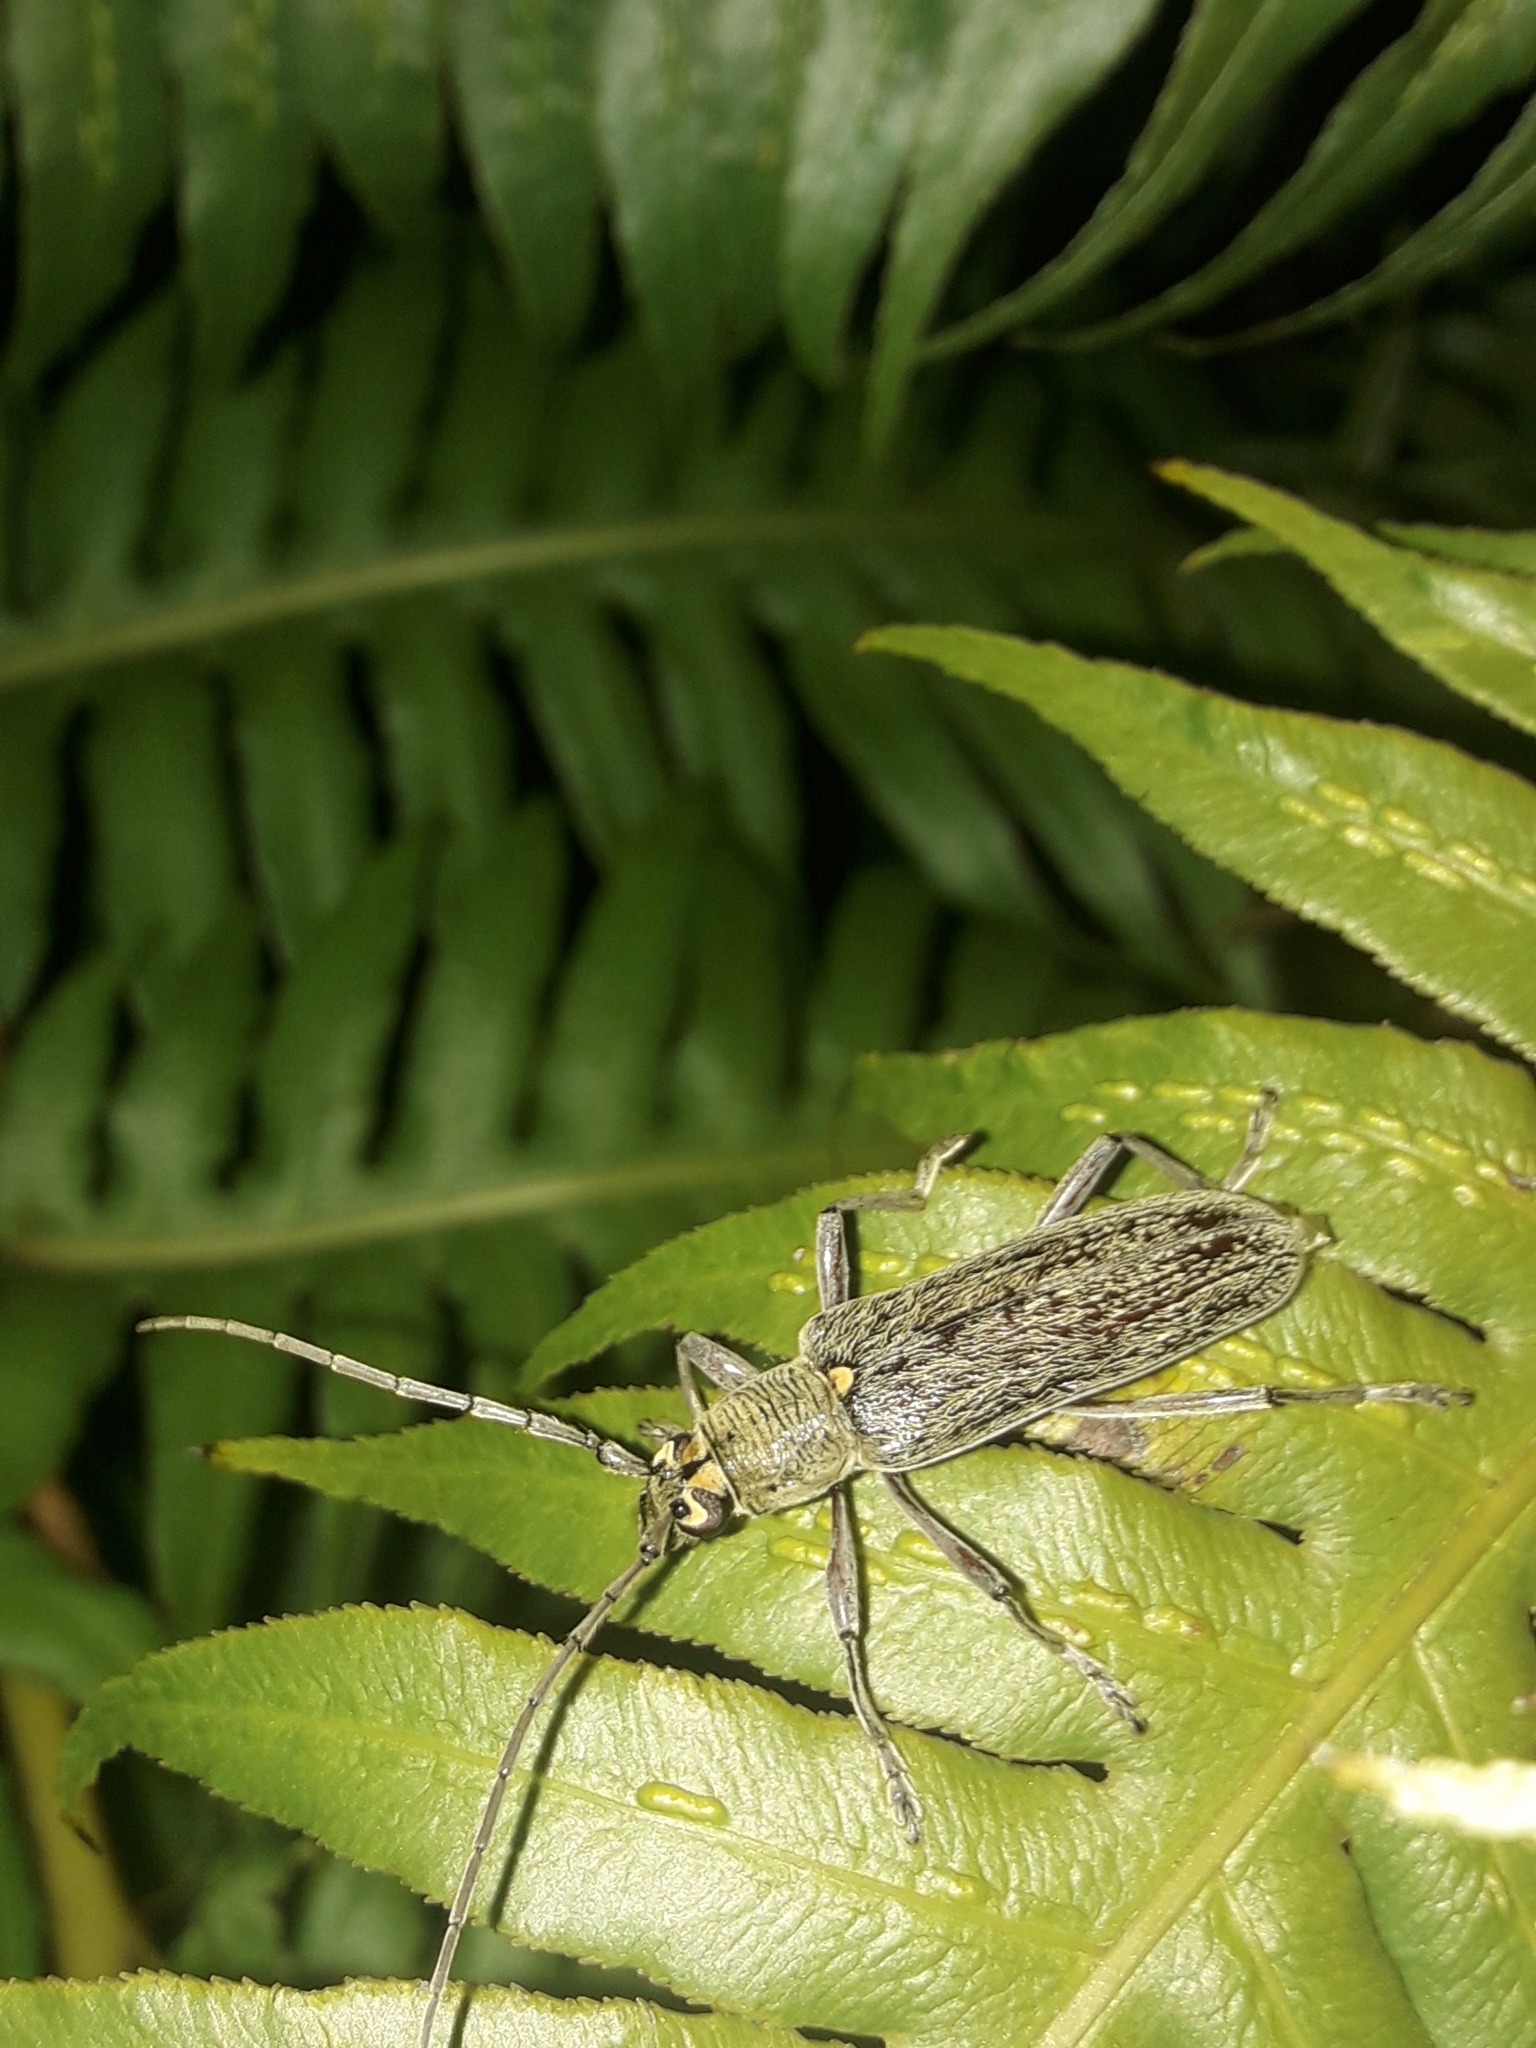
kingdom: Animalia
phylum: Arthropoda
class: Insecta
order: Coleoptera
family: Cerambycidae
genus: Oemona
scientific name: Oemona hirta
